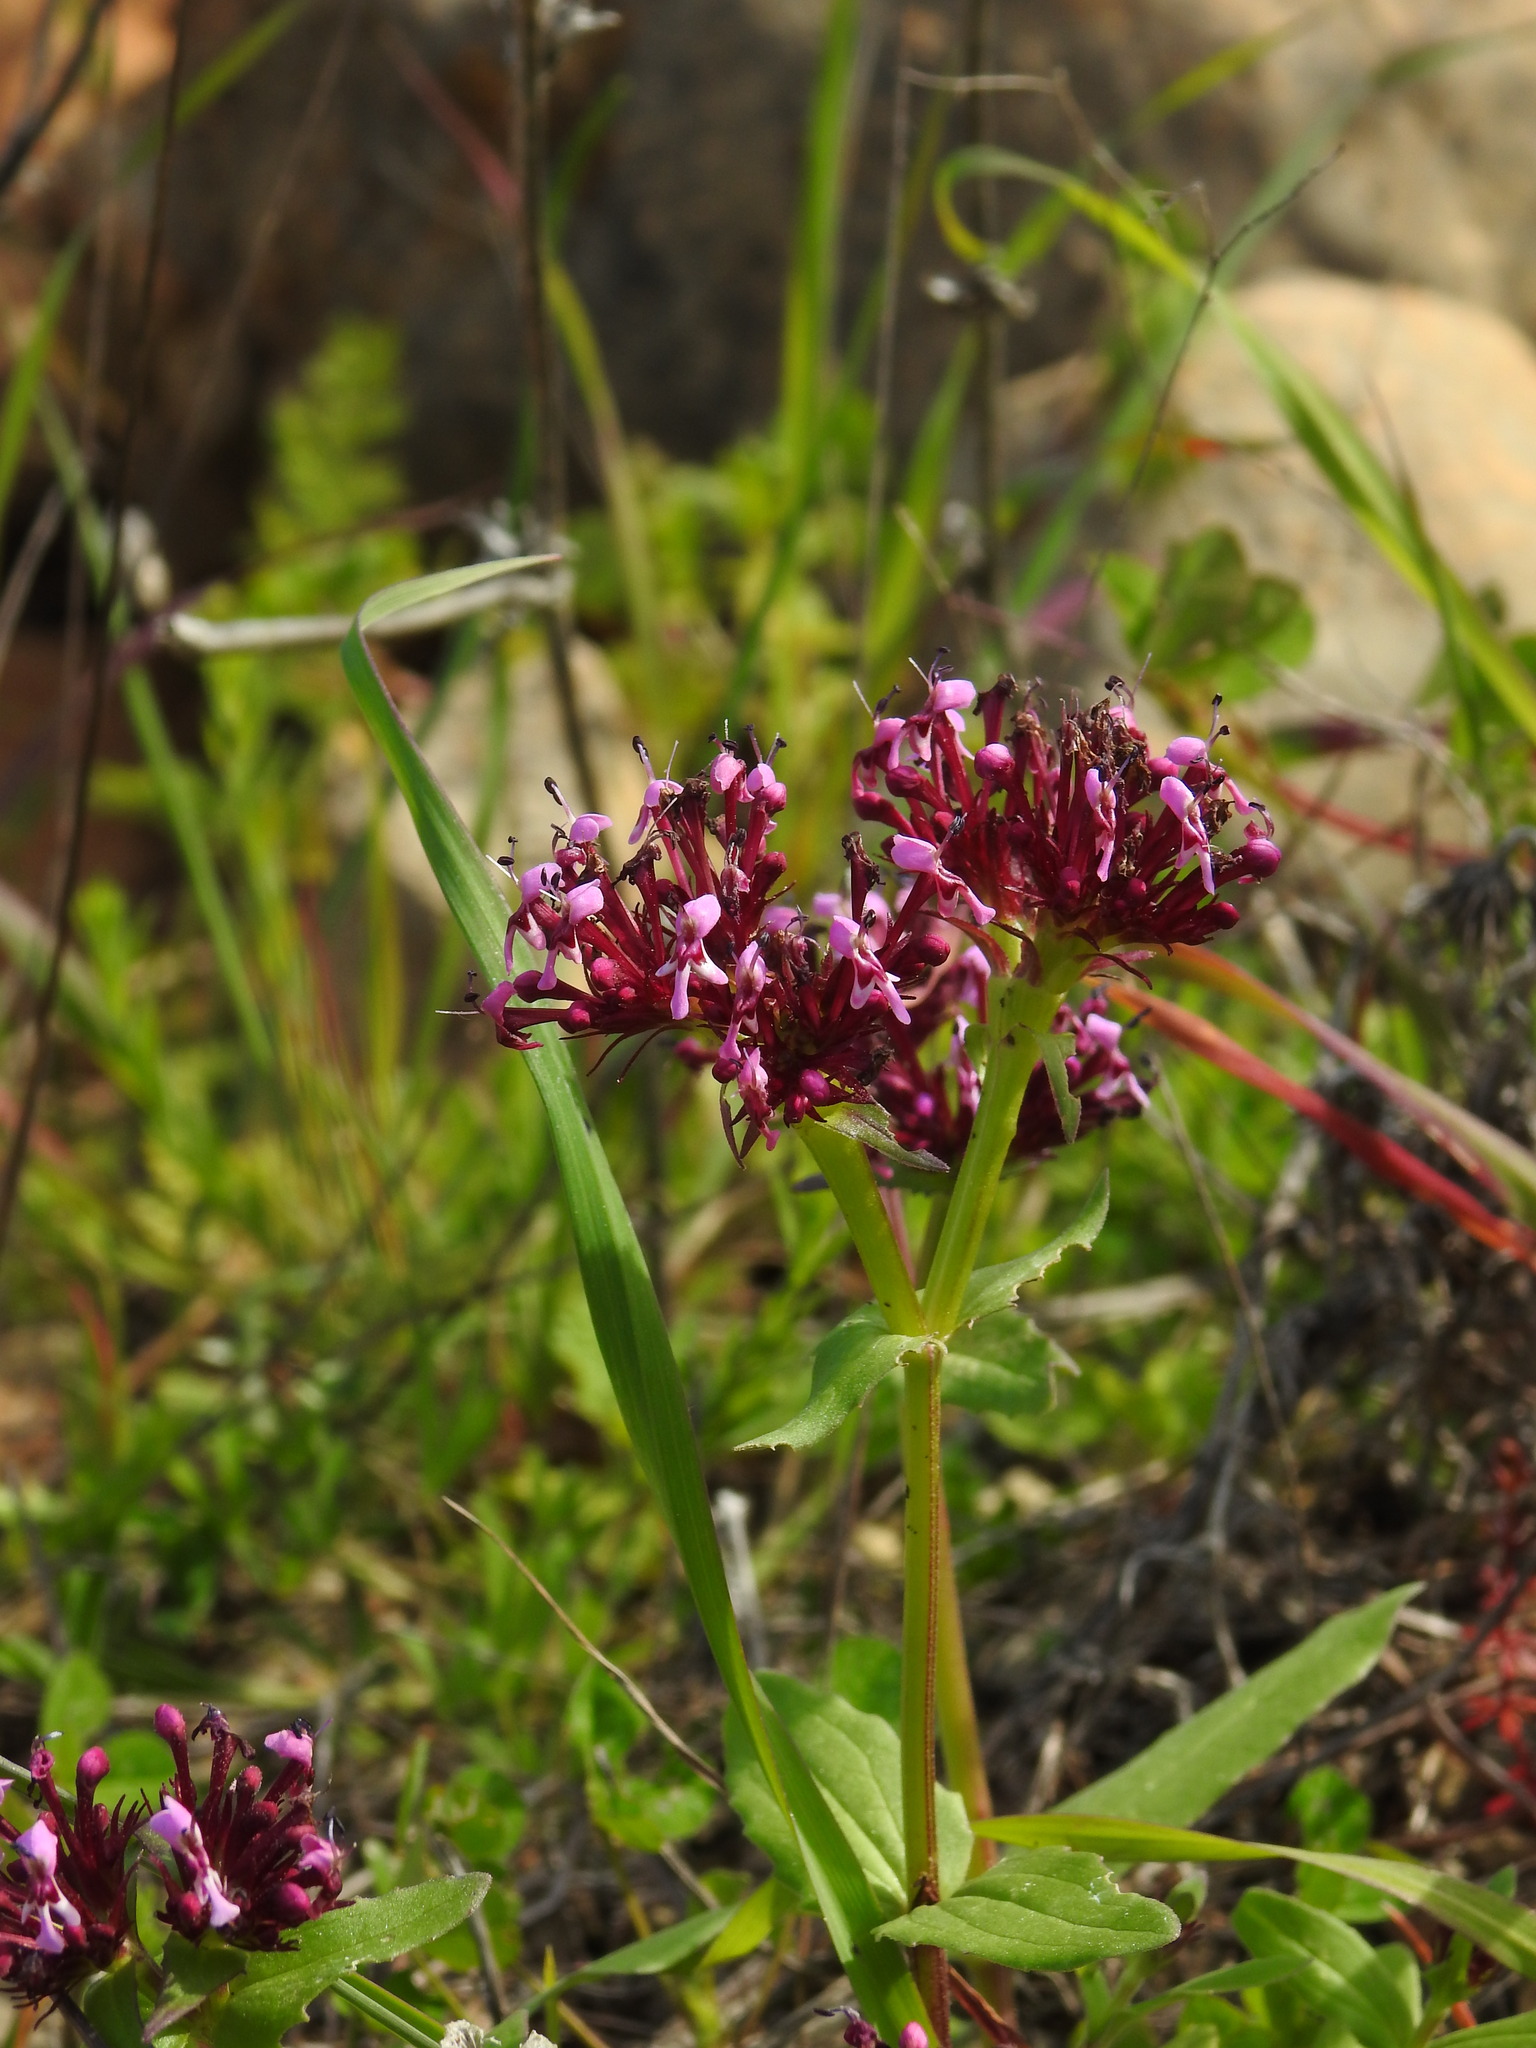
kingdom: Plantae
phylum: Tracheophyta
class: Magnoliopsida
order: Dipsacales
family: Caprifoliaceae
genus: Fedia
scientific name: Fedia cornucopiae
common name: Horn-of-plenty
